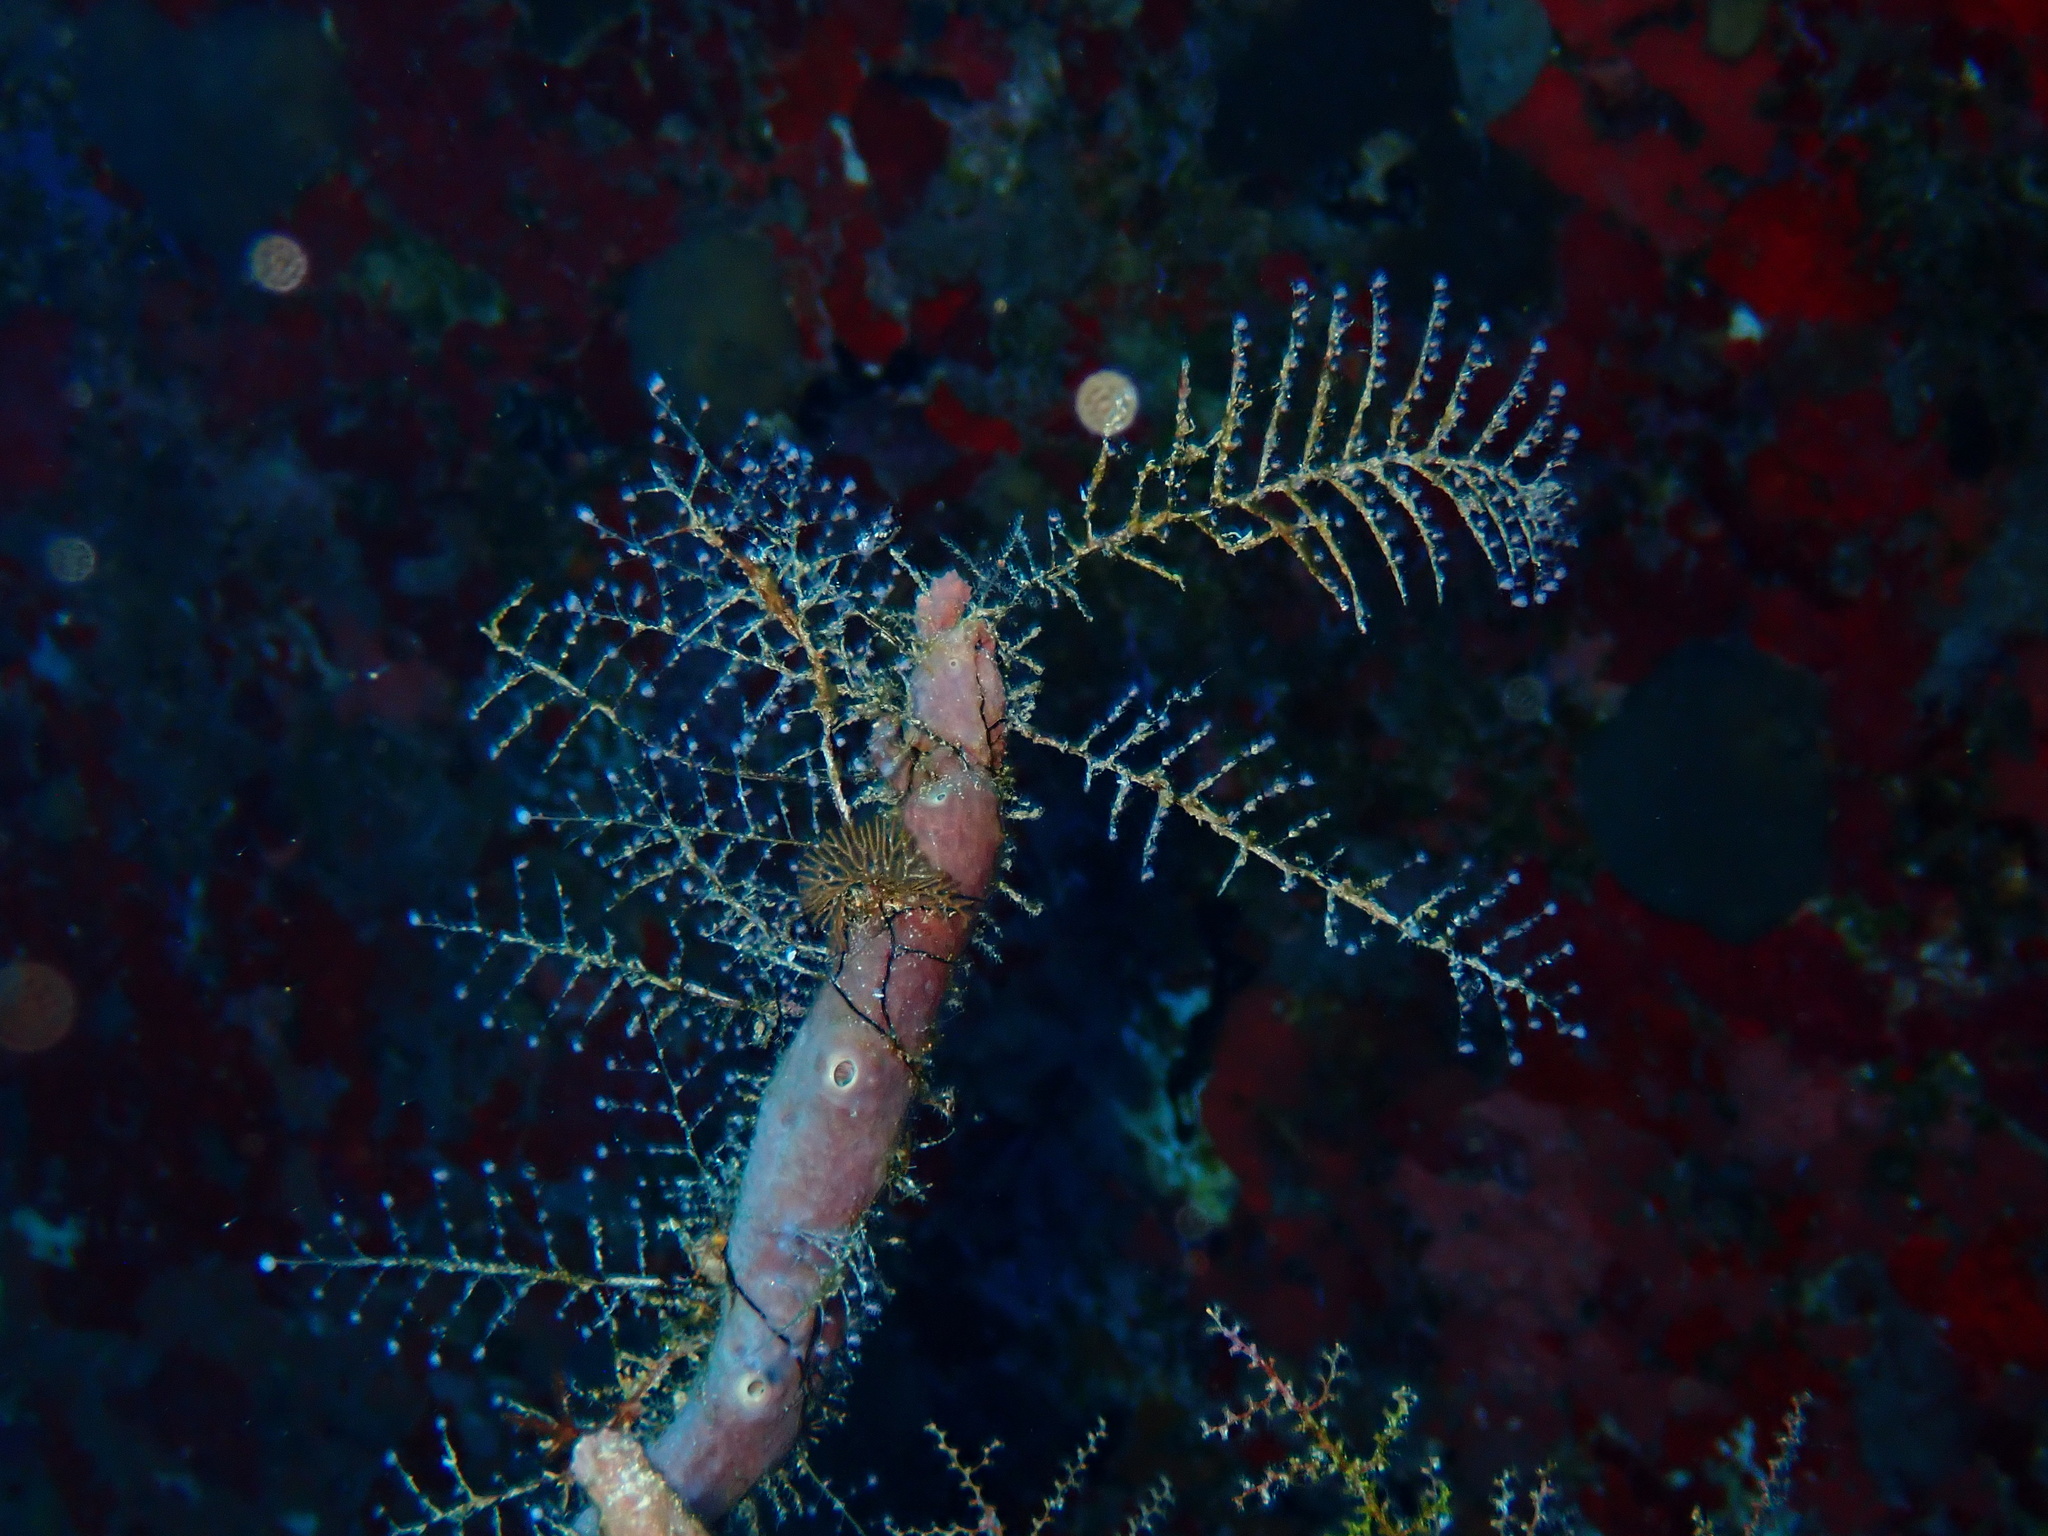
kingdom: Animalia
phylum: Cnidaria
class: Hydrozoa
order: Anthoathecata
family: Pennariidae
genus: Pennaria
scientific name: Pennaria disticha
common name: Feather hydroid
